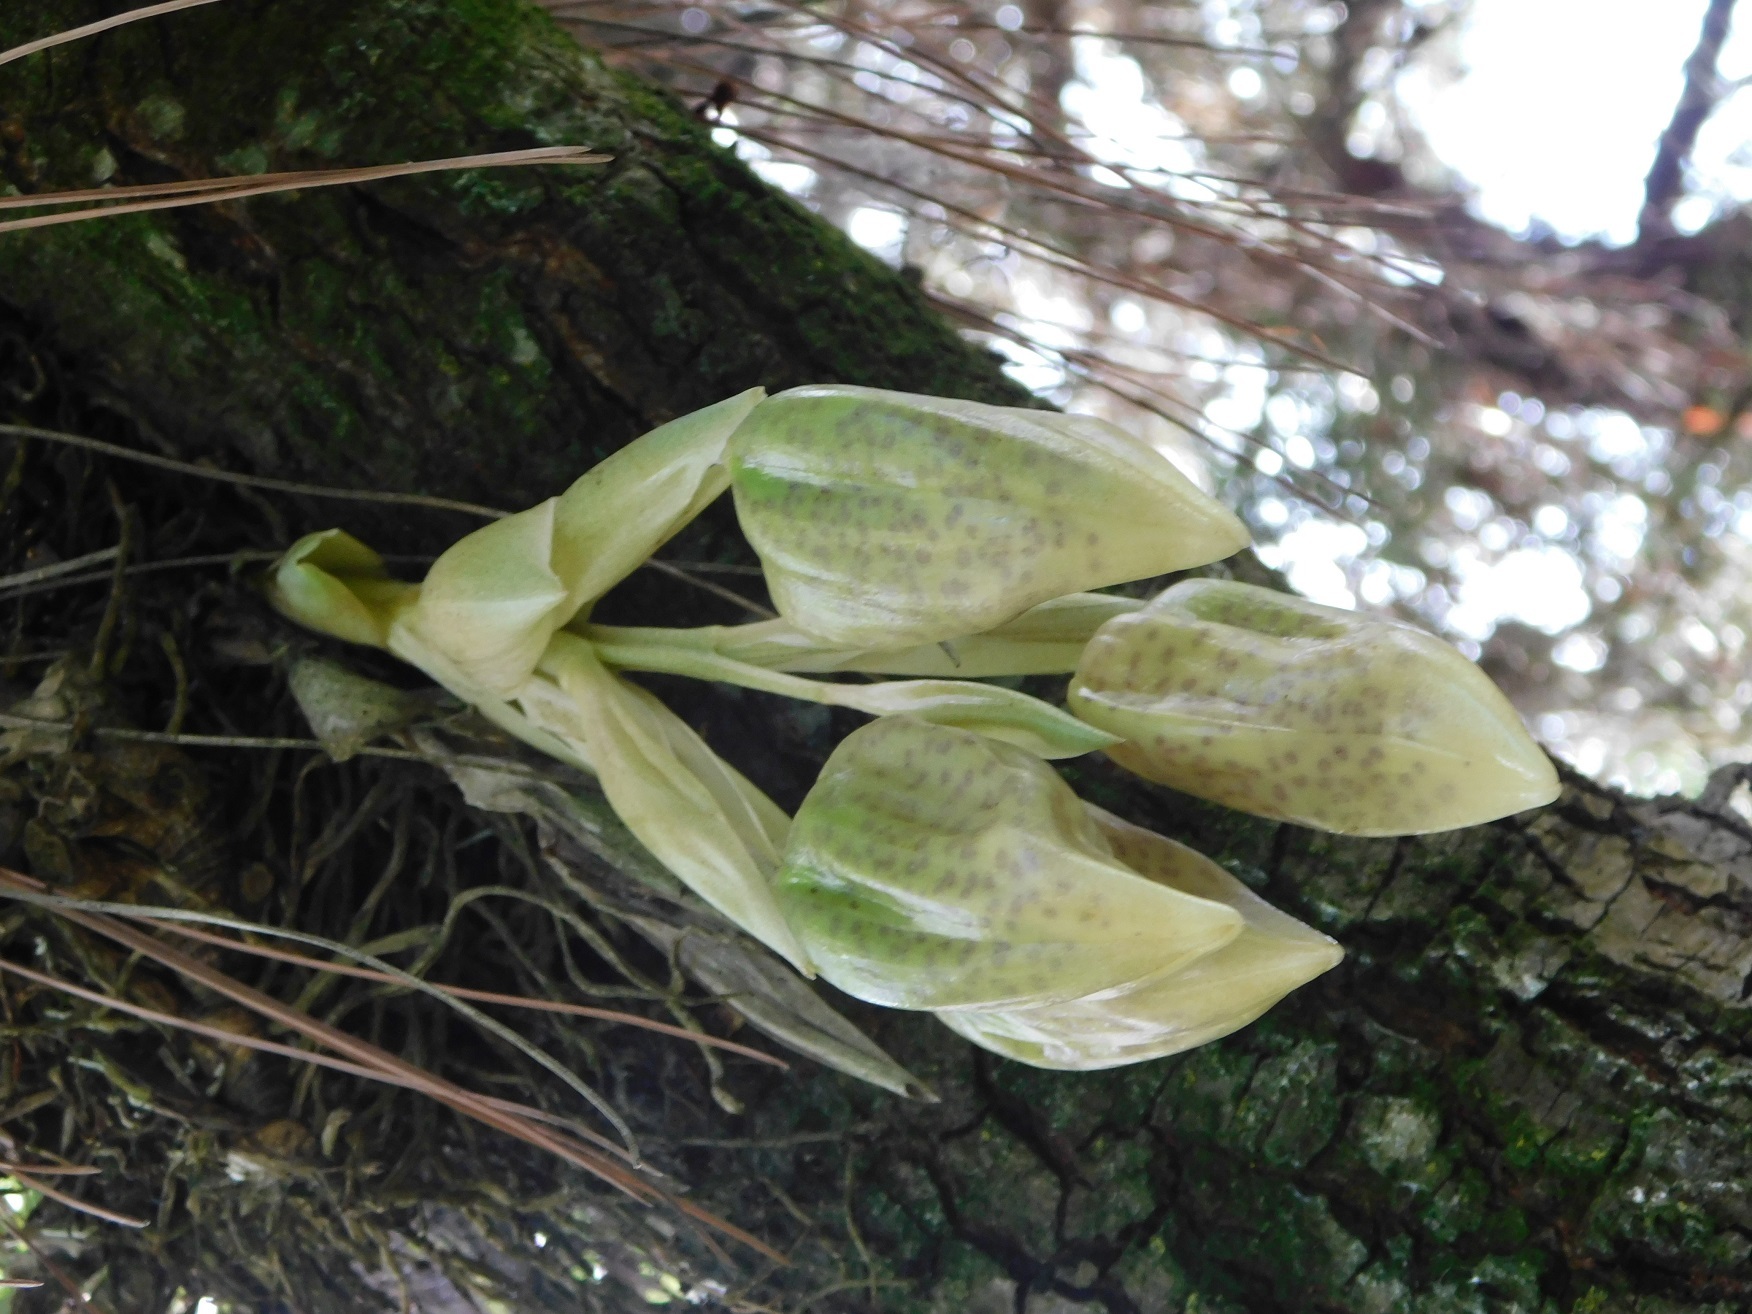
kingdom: Plantae
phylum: Tracheophyta
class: Liliopsida
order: Asparagales
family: Orchidaceae
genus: Stanhopea
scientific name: Stanhopea oculata
